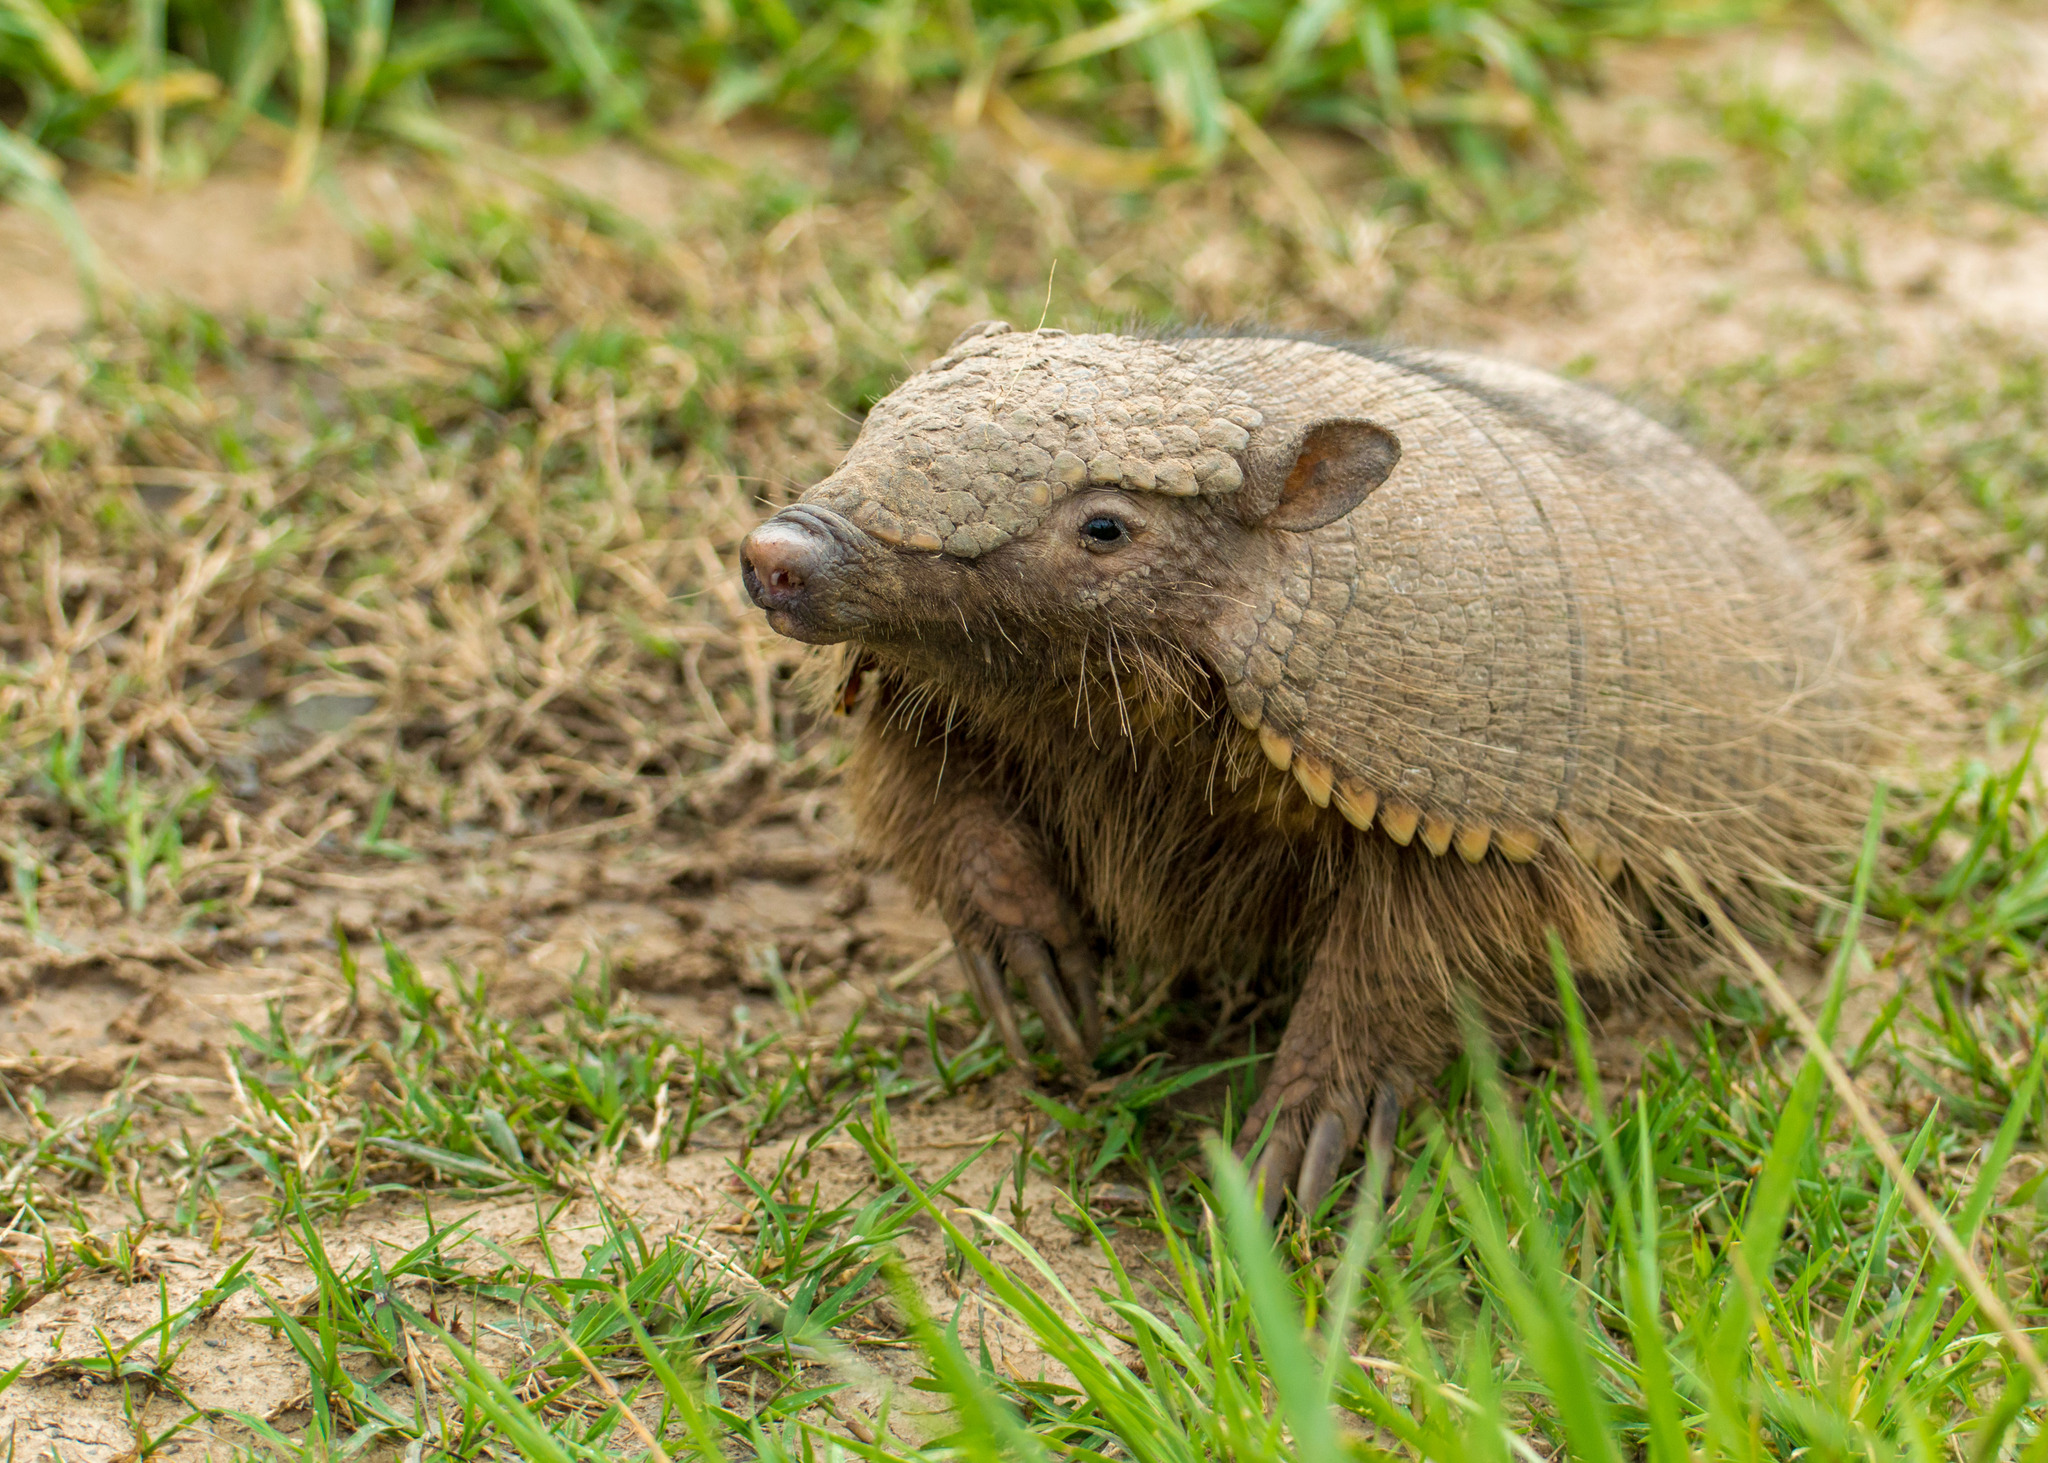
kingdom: Animalia
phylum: Chordata
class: Mammalia
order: Cingulata
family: Dasypodidae
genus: Chaetophractus
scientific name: Chaetophractus villosus
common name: Big hairy armadillo
